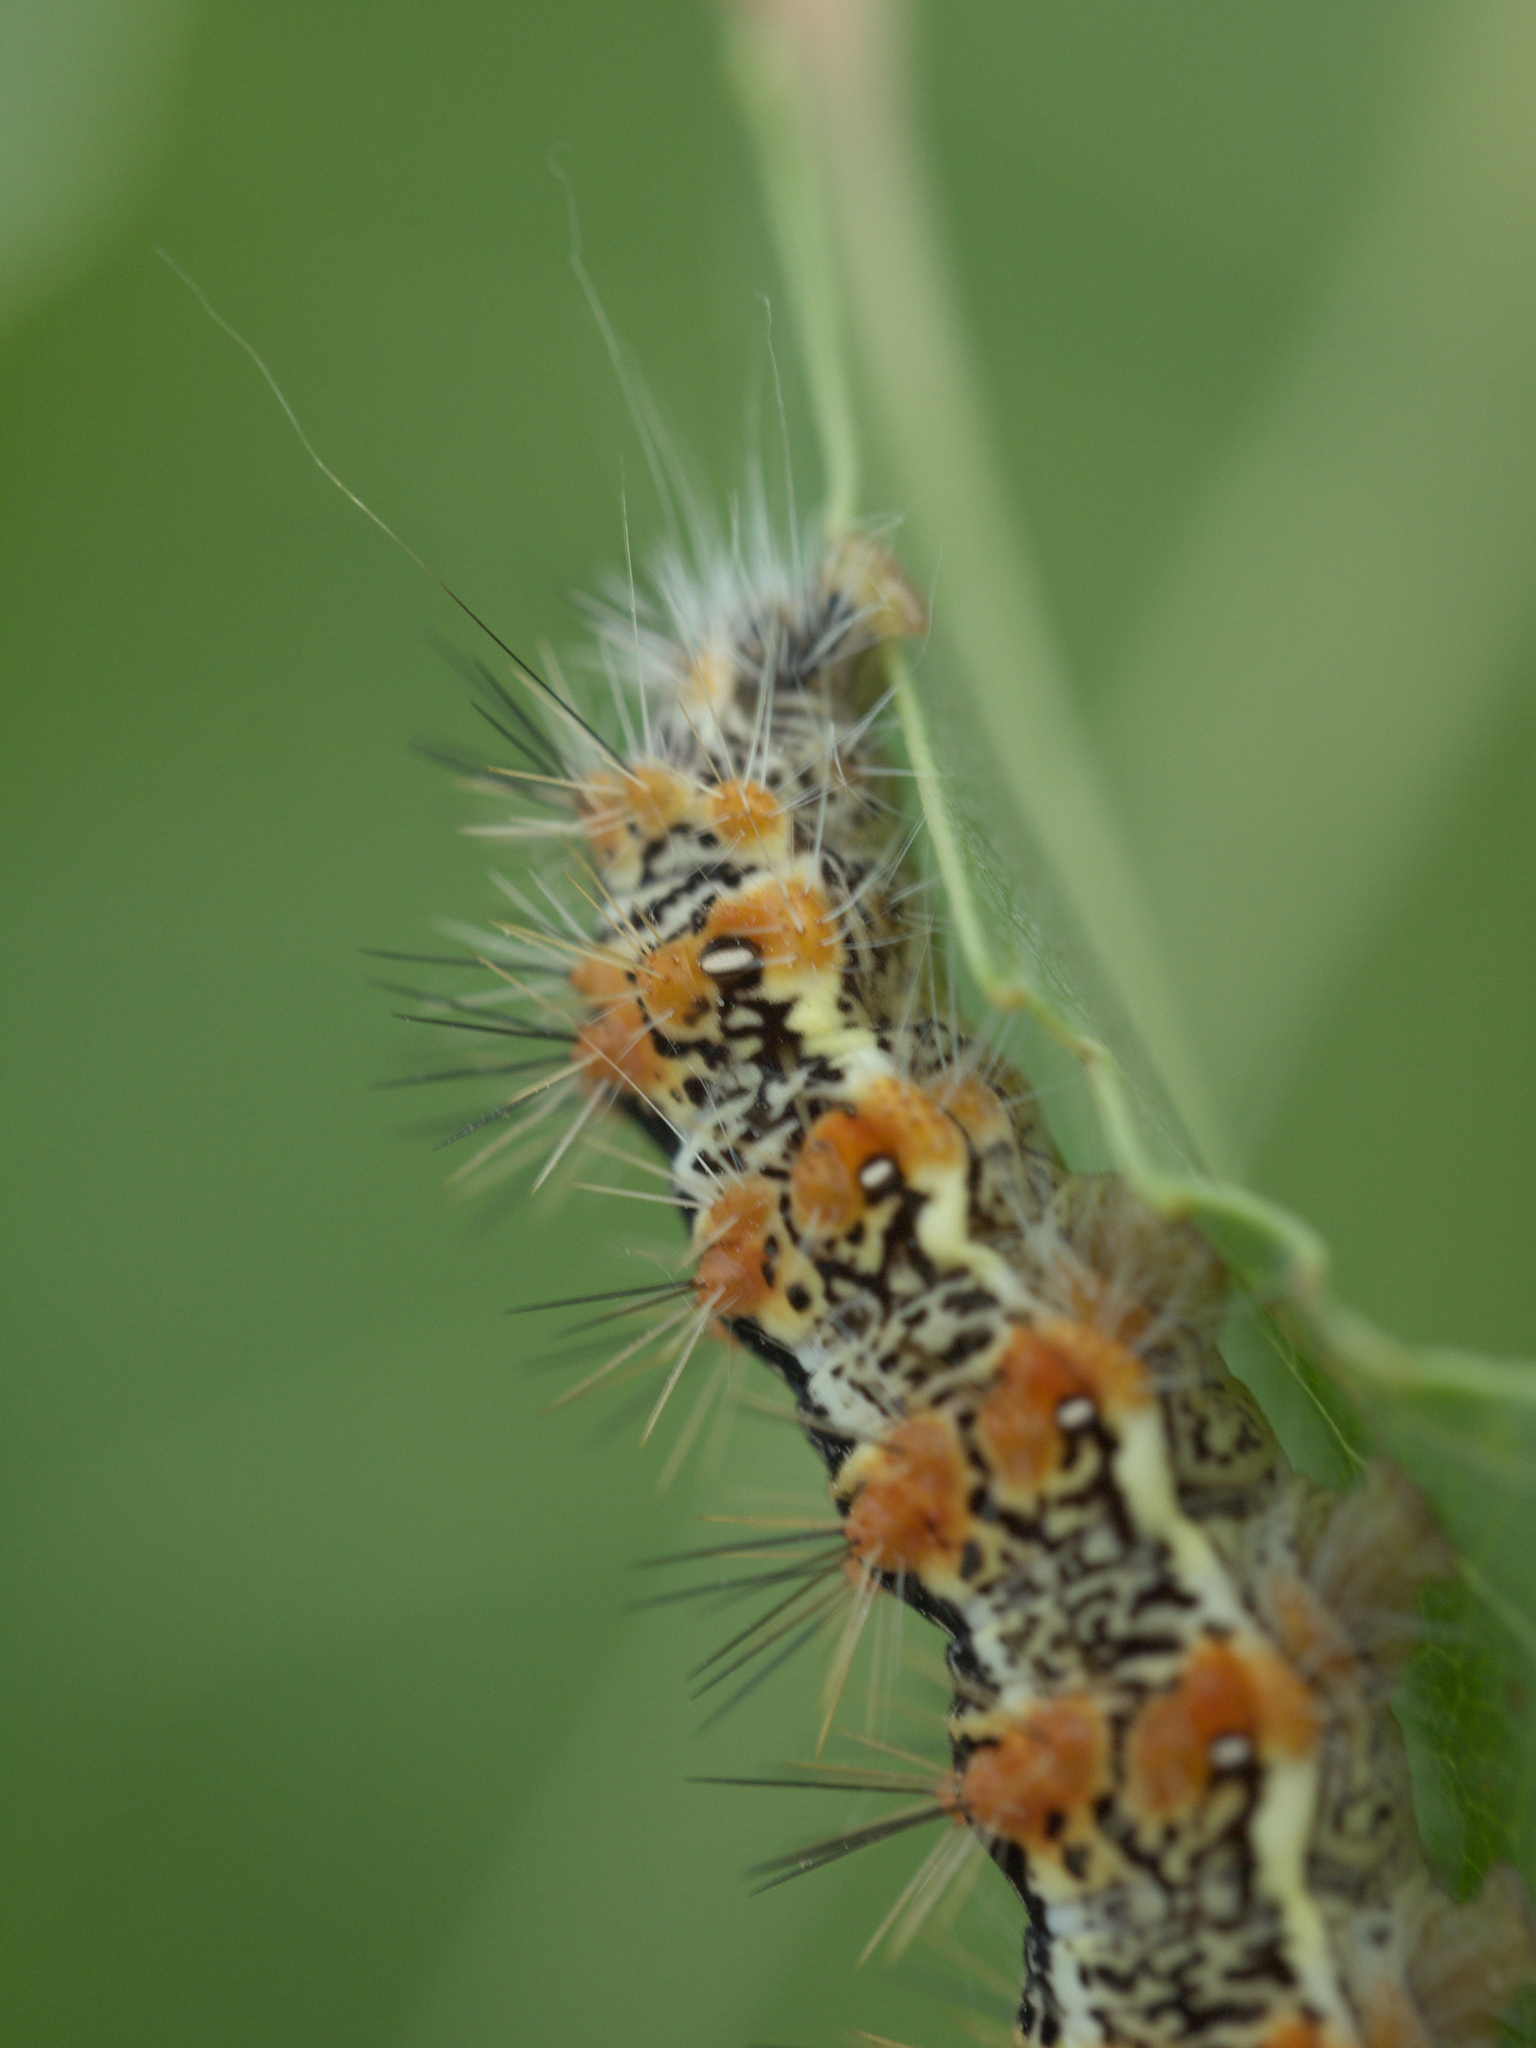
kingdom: Animalia
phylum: Arthropoda
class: Insecta
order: Lepidoptera
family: Noctuidae
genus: Acronicta
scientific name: Acronicta insularis
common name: Henry's marsh moth
